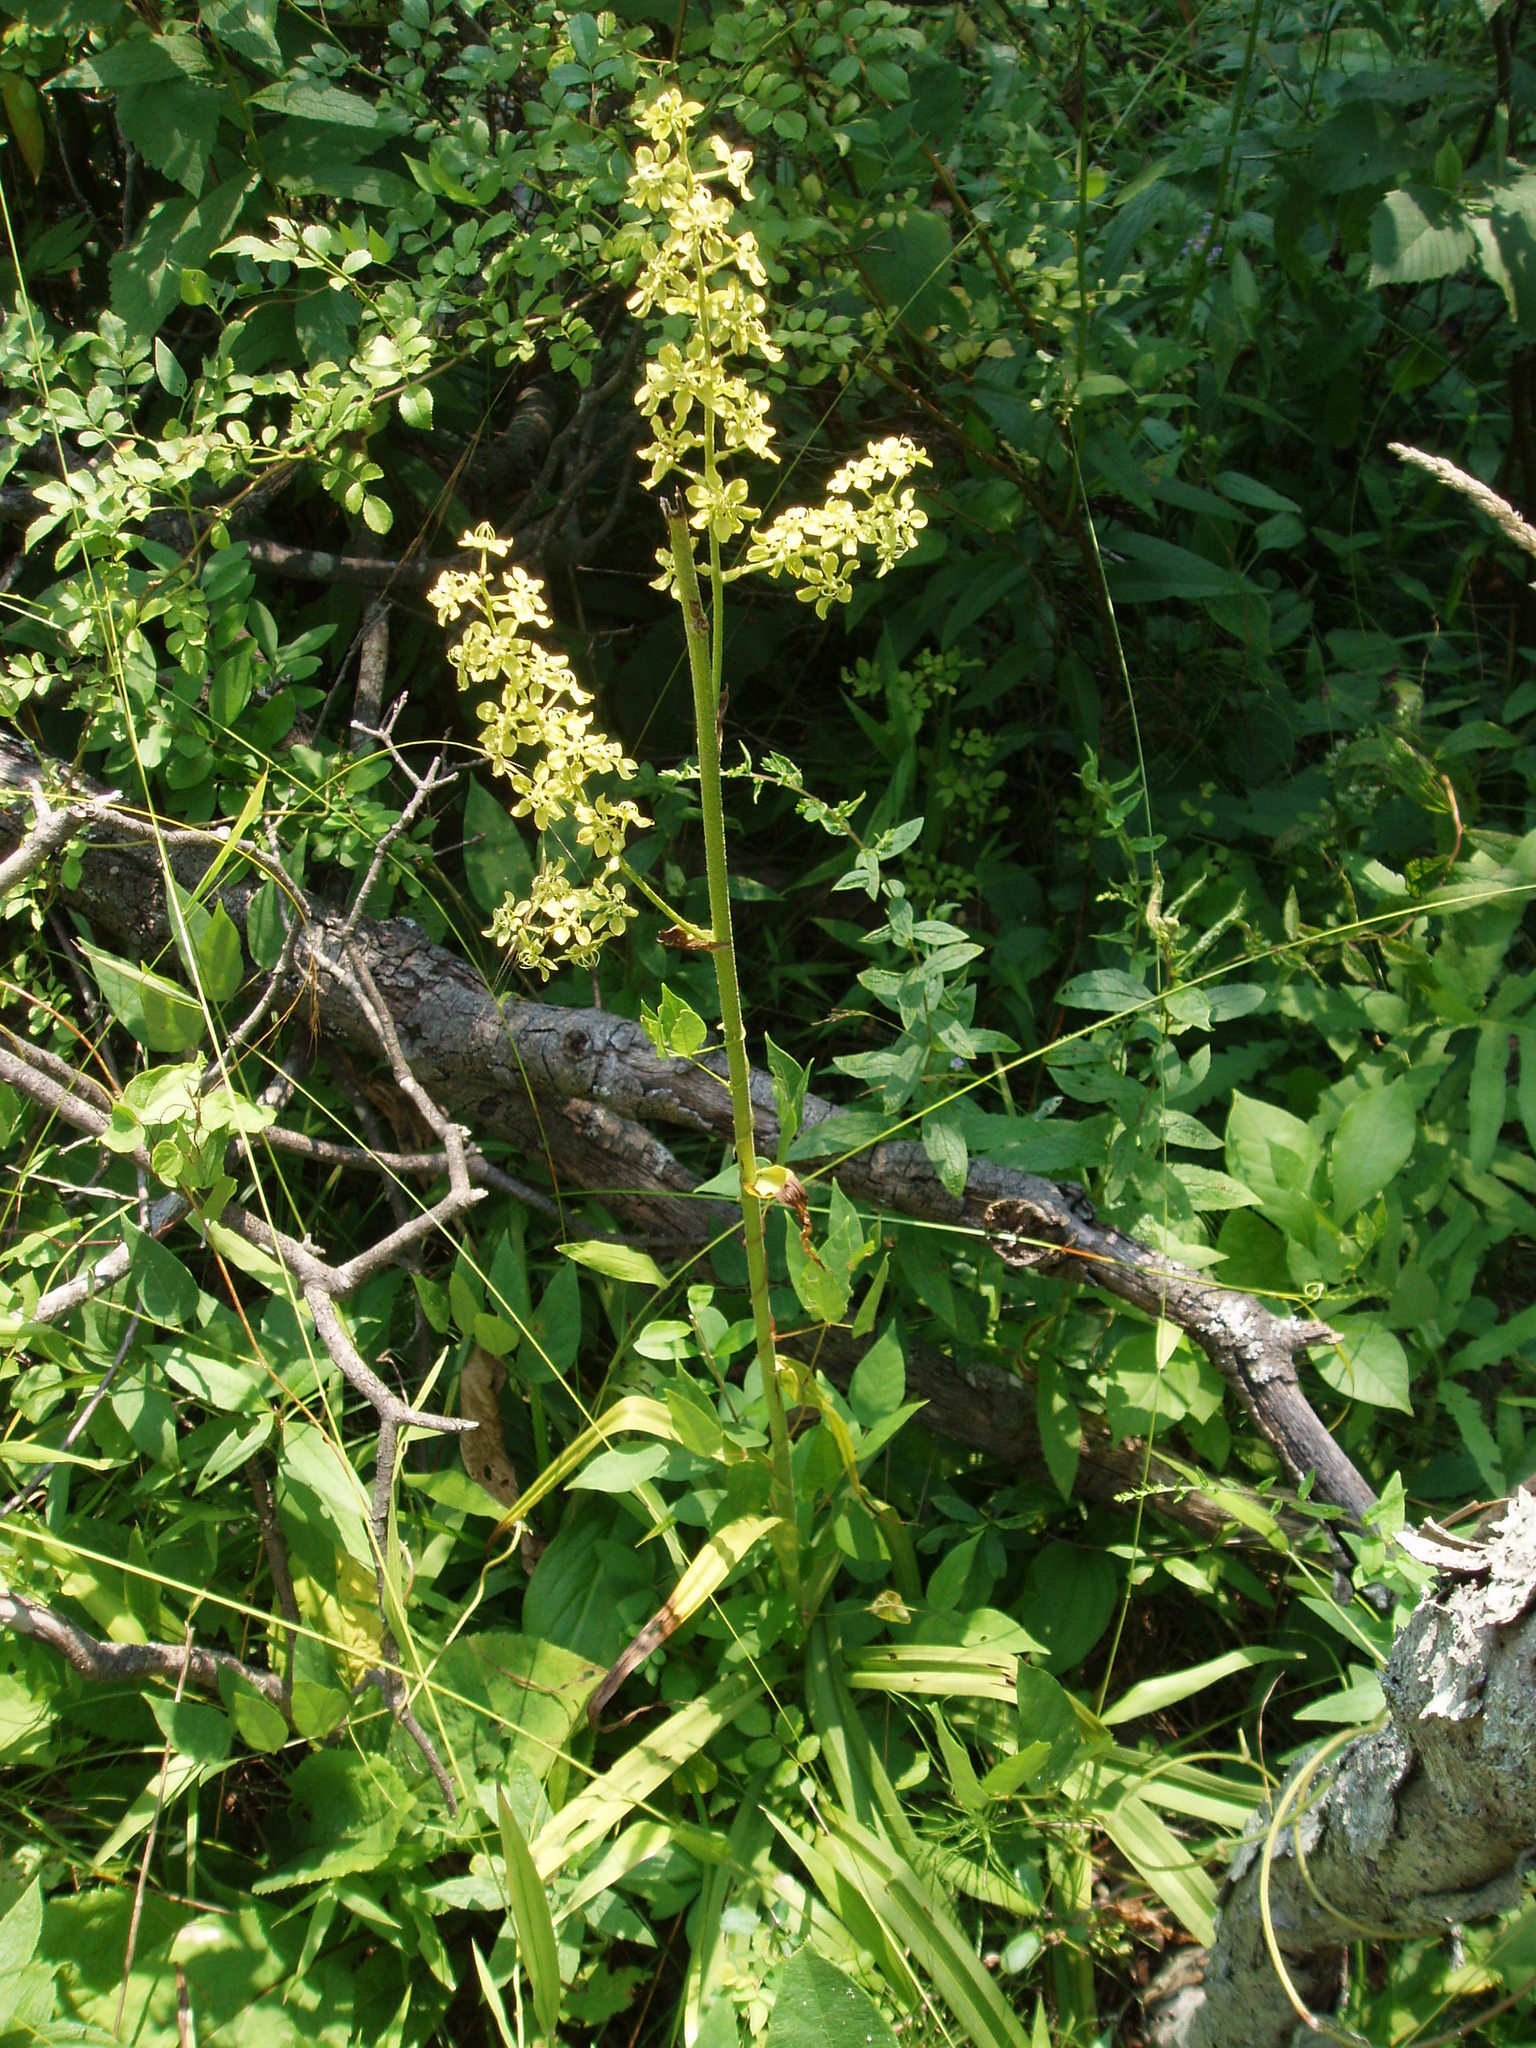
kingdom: Plantae
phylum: Tracheophyta
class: Liliopsida
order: Liliales
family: Melanthiaceae
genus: Melanthium
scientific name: Melanthium virginicum
